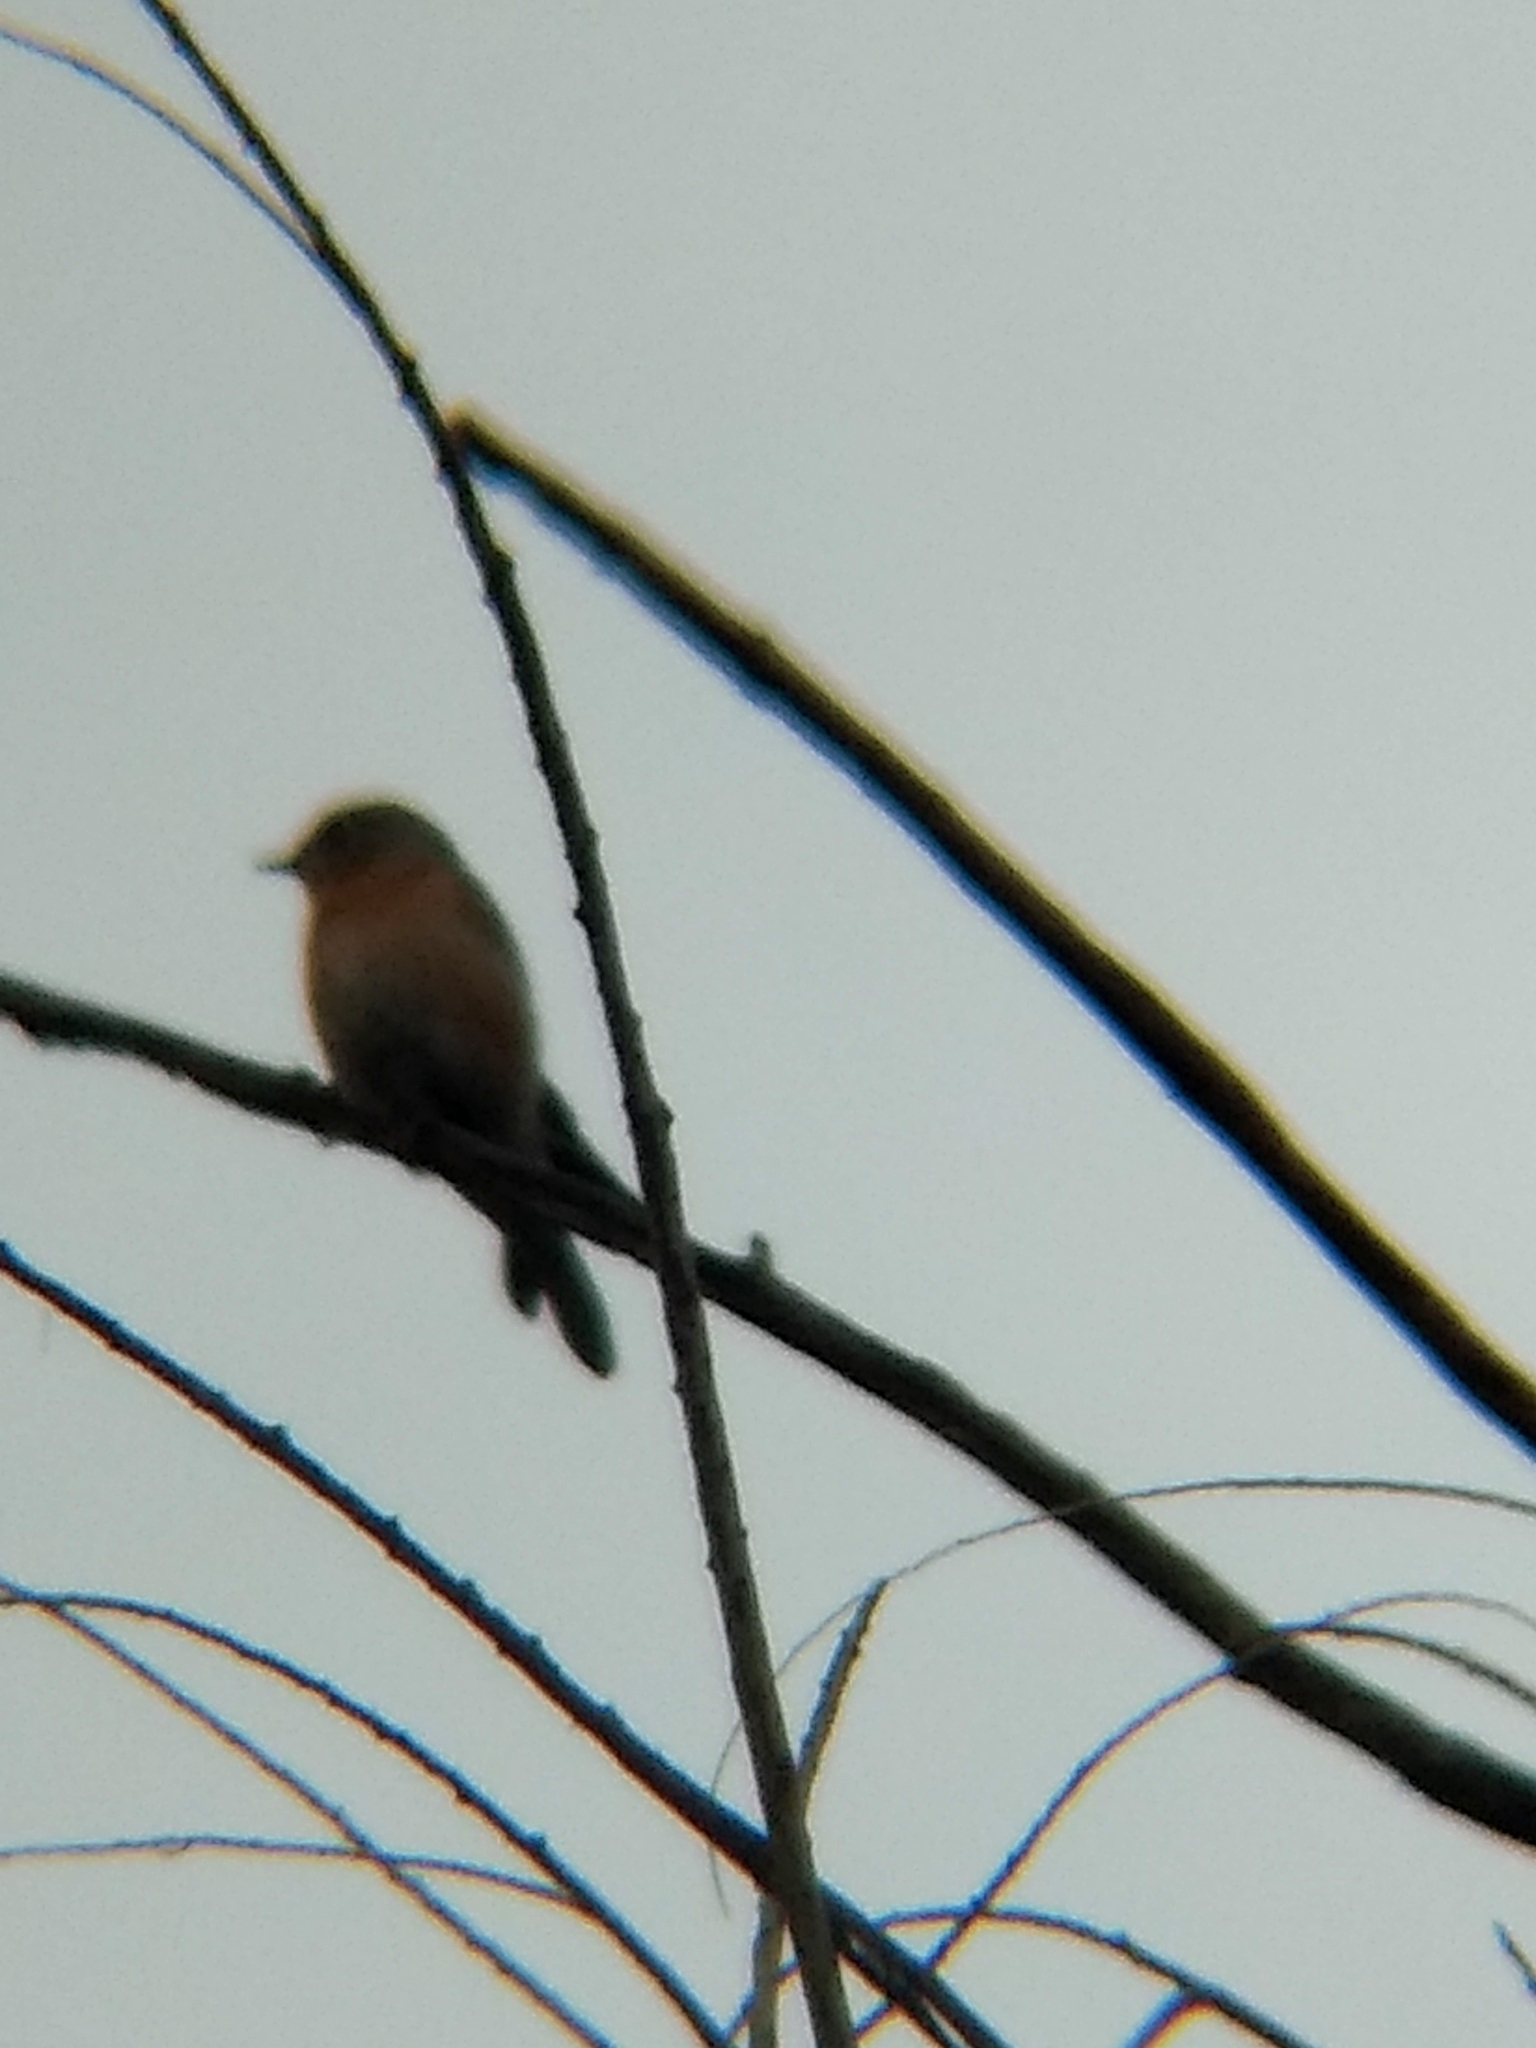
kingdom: Animalia
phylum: Chordata
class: Aves
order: Passeriformes
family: Turdidae
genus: Sialia
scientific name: Sialia mexicana
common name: Western bluebird
